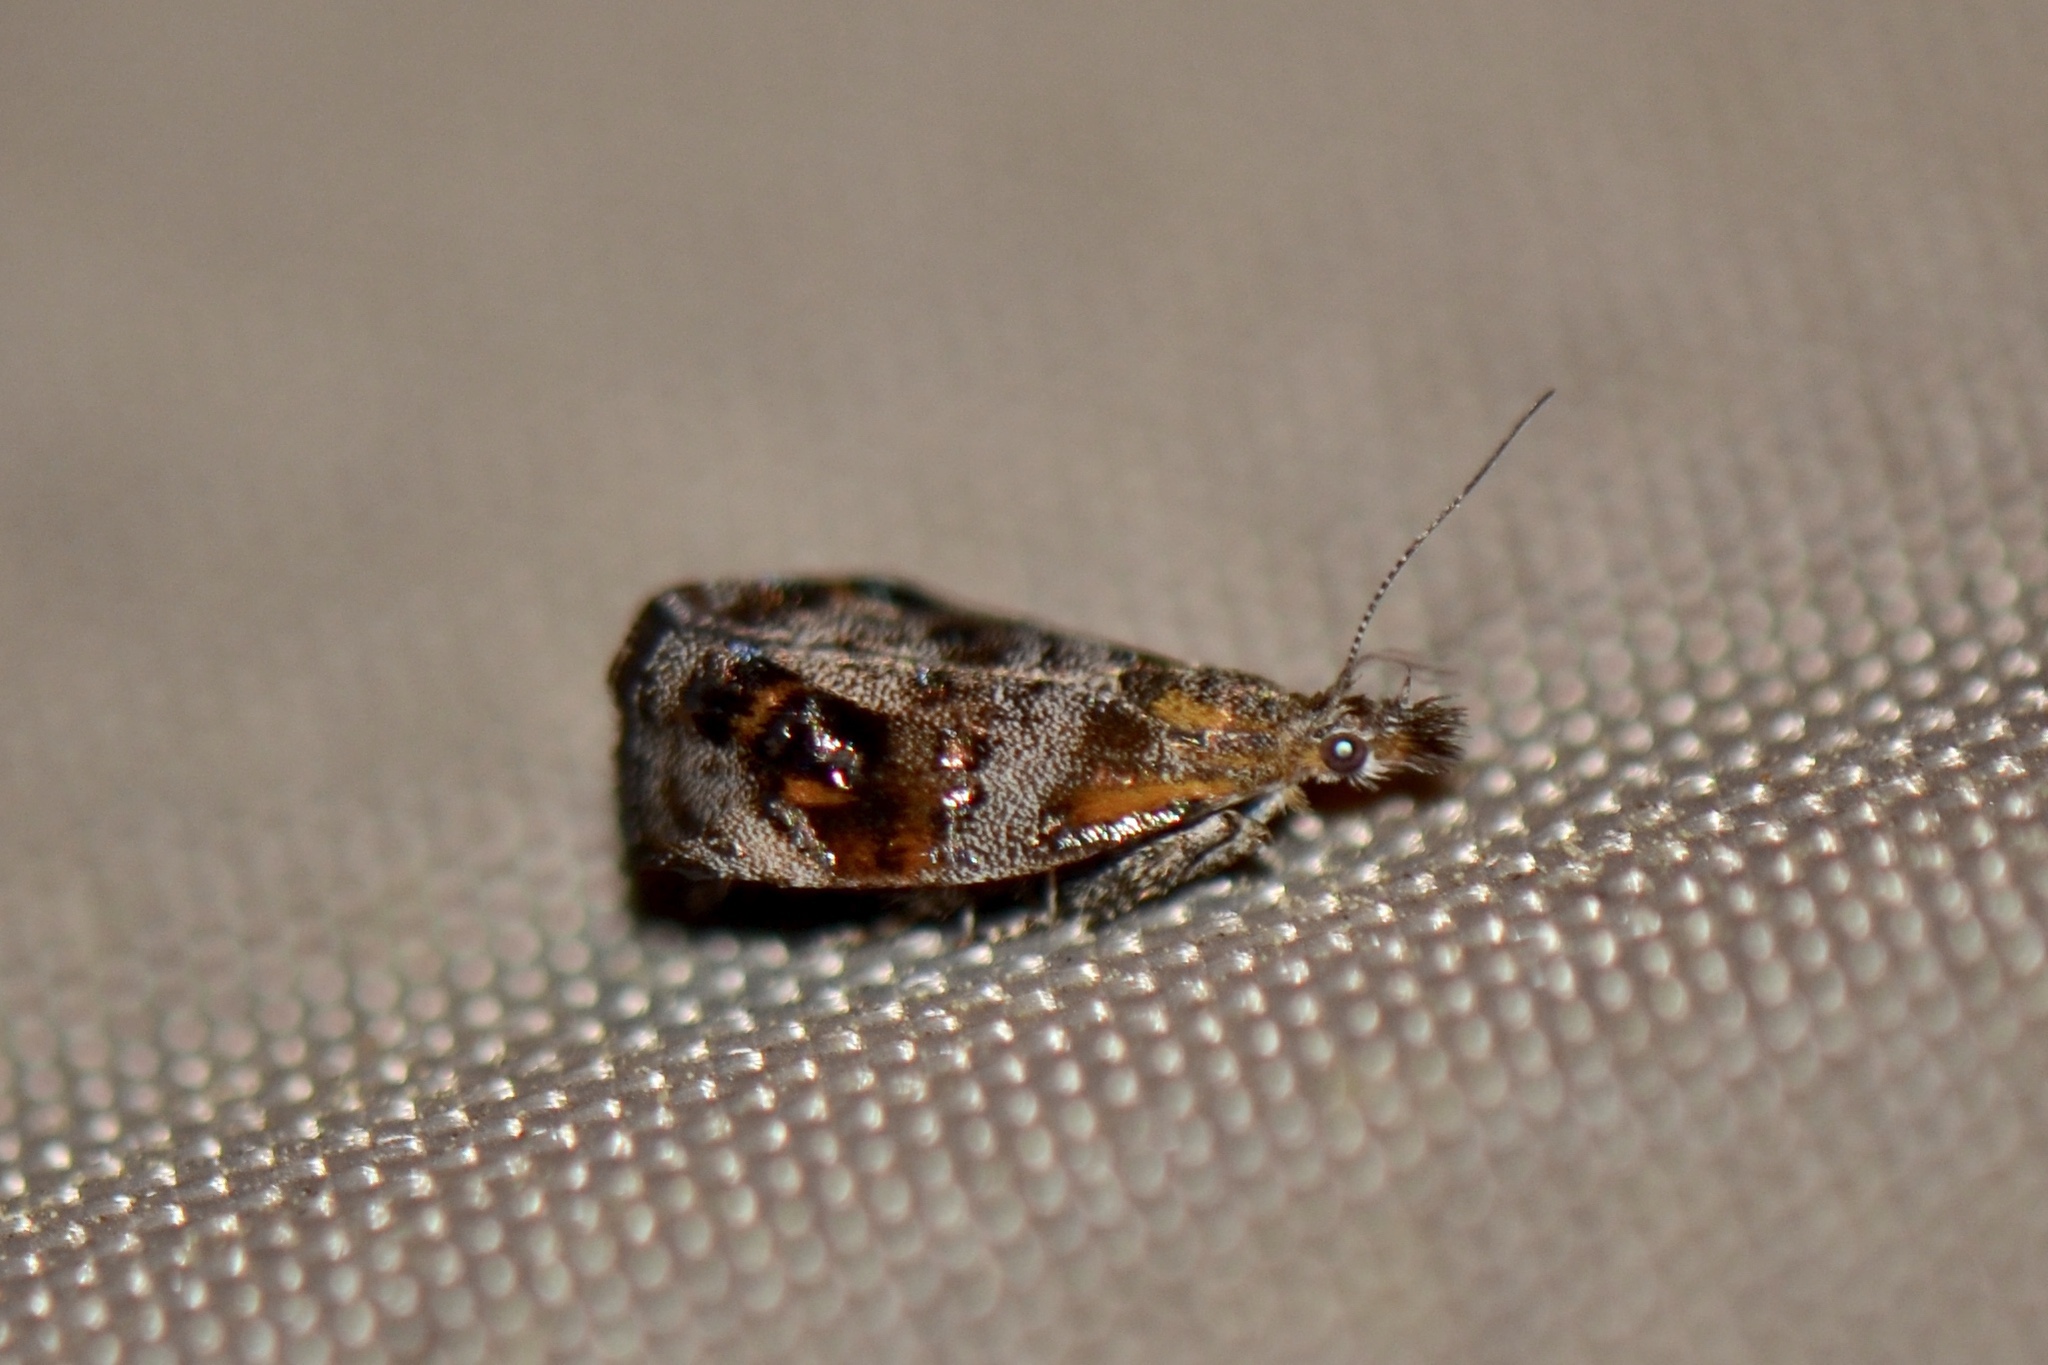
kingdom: Animalia
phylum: Arthropoda
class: Insecta
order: Lepidoptera
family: Choreutidae
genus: Tebenna
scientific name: Tebenna
